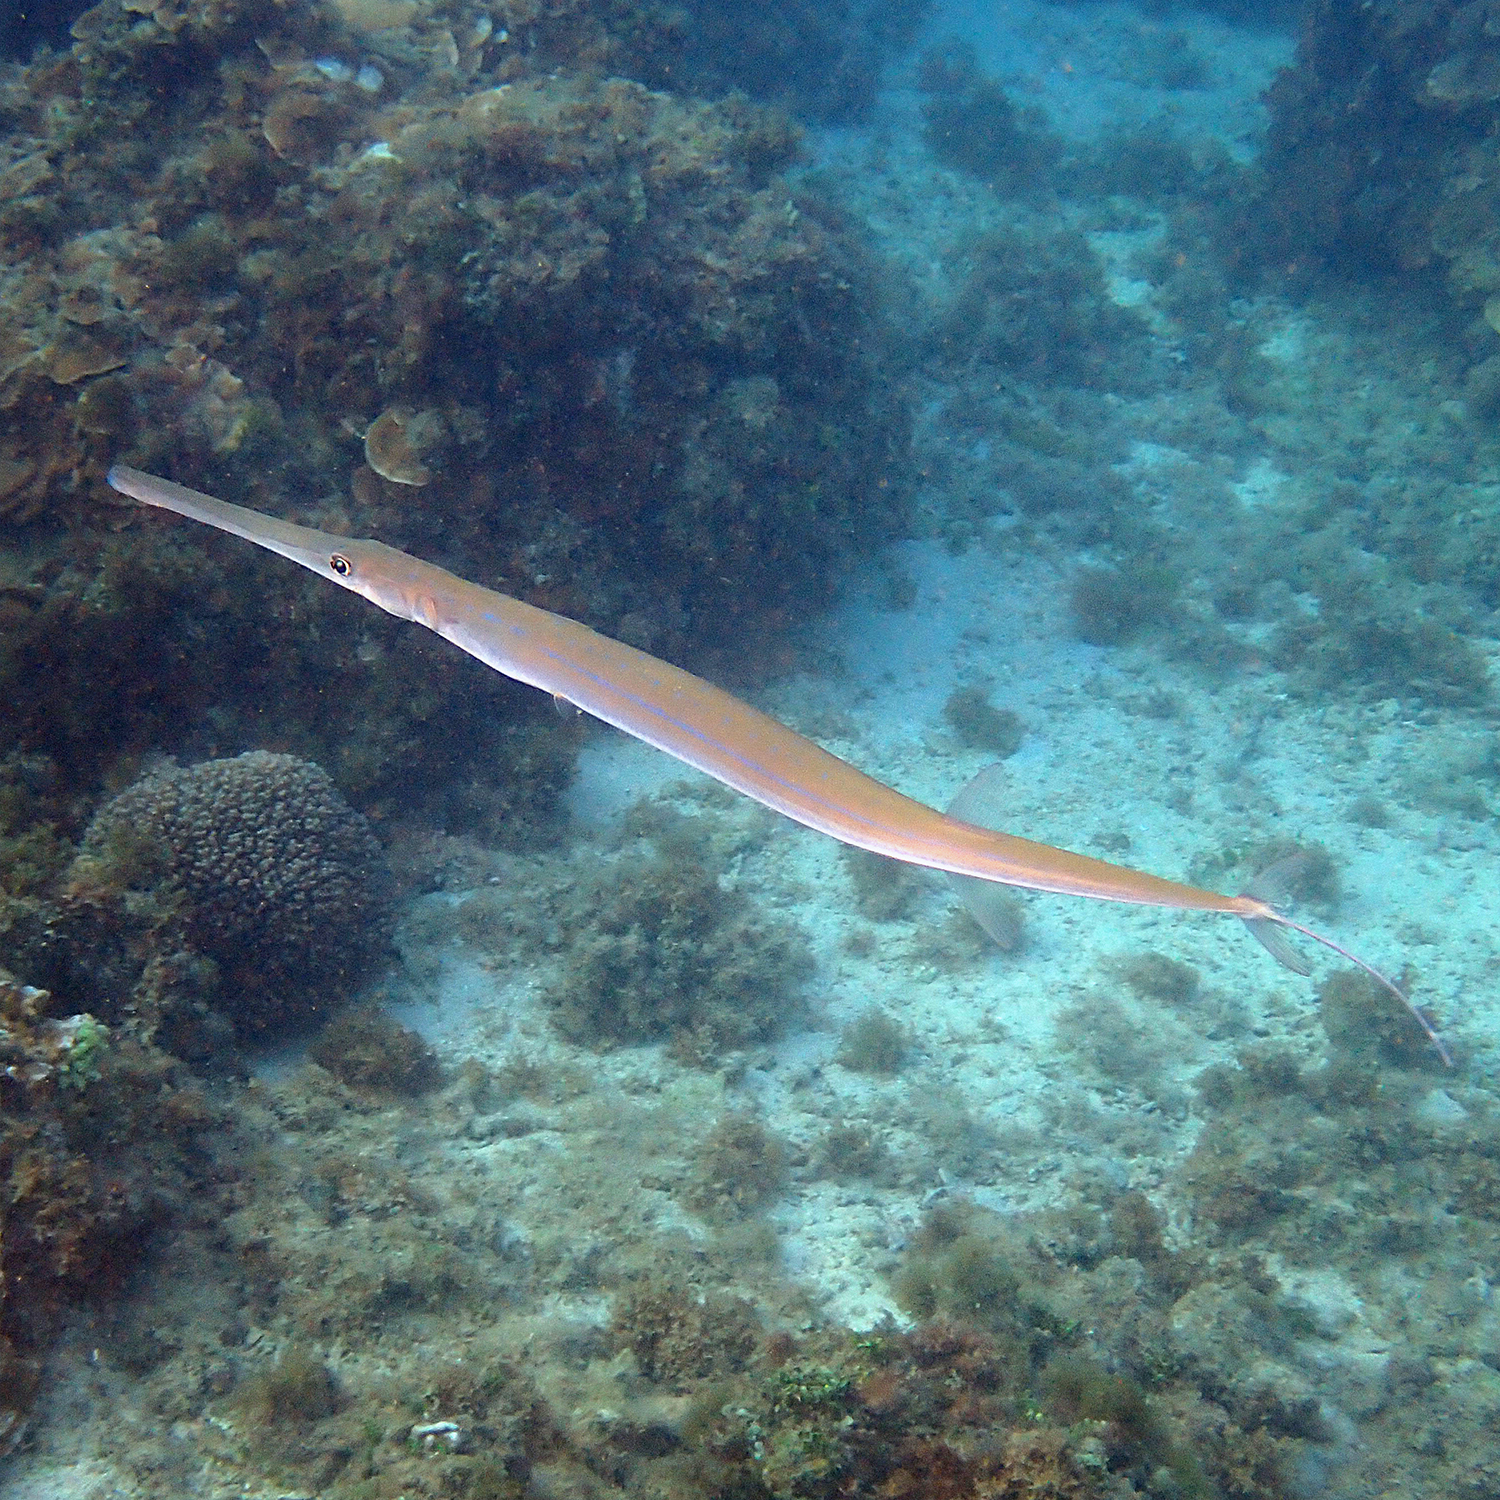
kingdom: Animalia
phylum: Chordata
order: Syngnathiformes
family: Fistulariidae
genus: Fistularia
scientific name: Fistularia commersonii
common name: Bluespotted cornetfish
